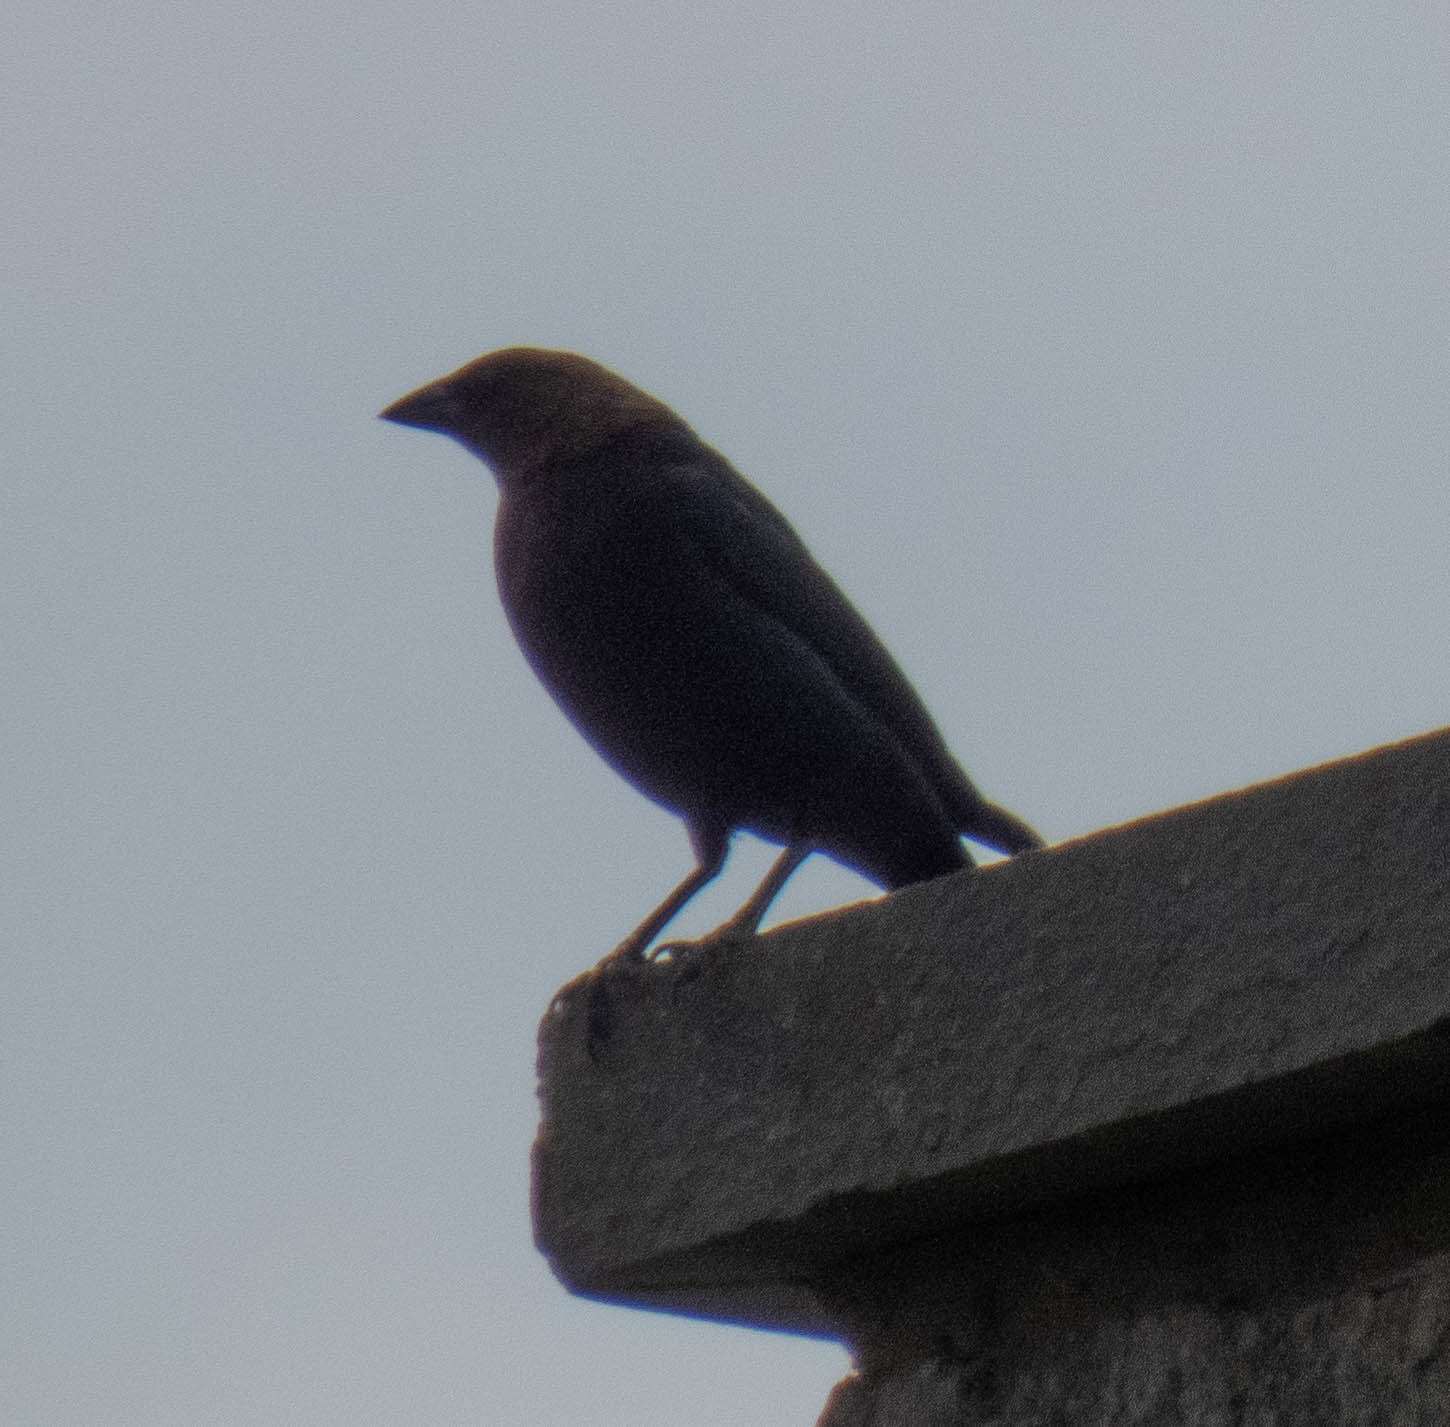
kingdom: Animalia
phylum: Chordata
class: Aves
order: Passeriformes
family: Icteridae
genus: Molothrus
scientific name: Molothrus ater
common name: Brown-headed cowbird
